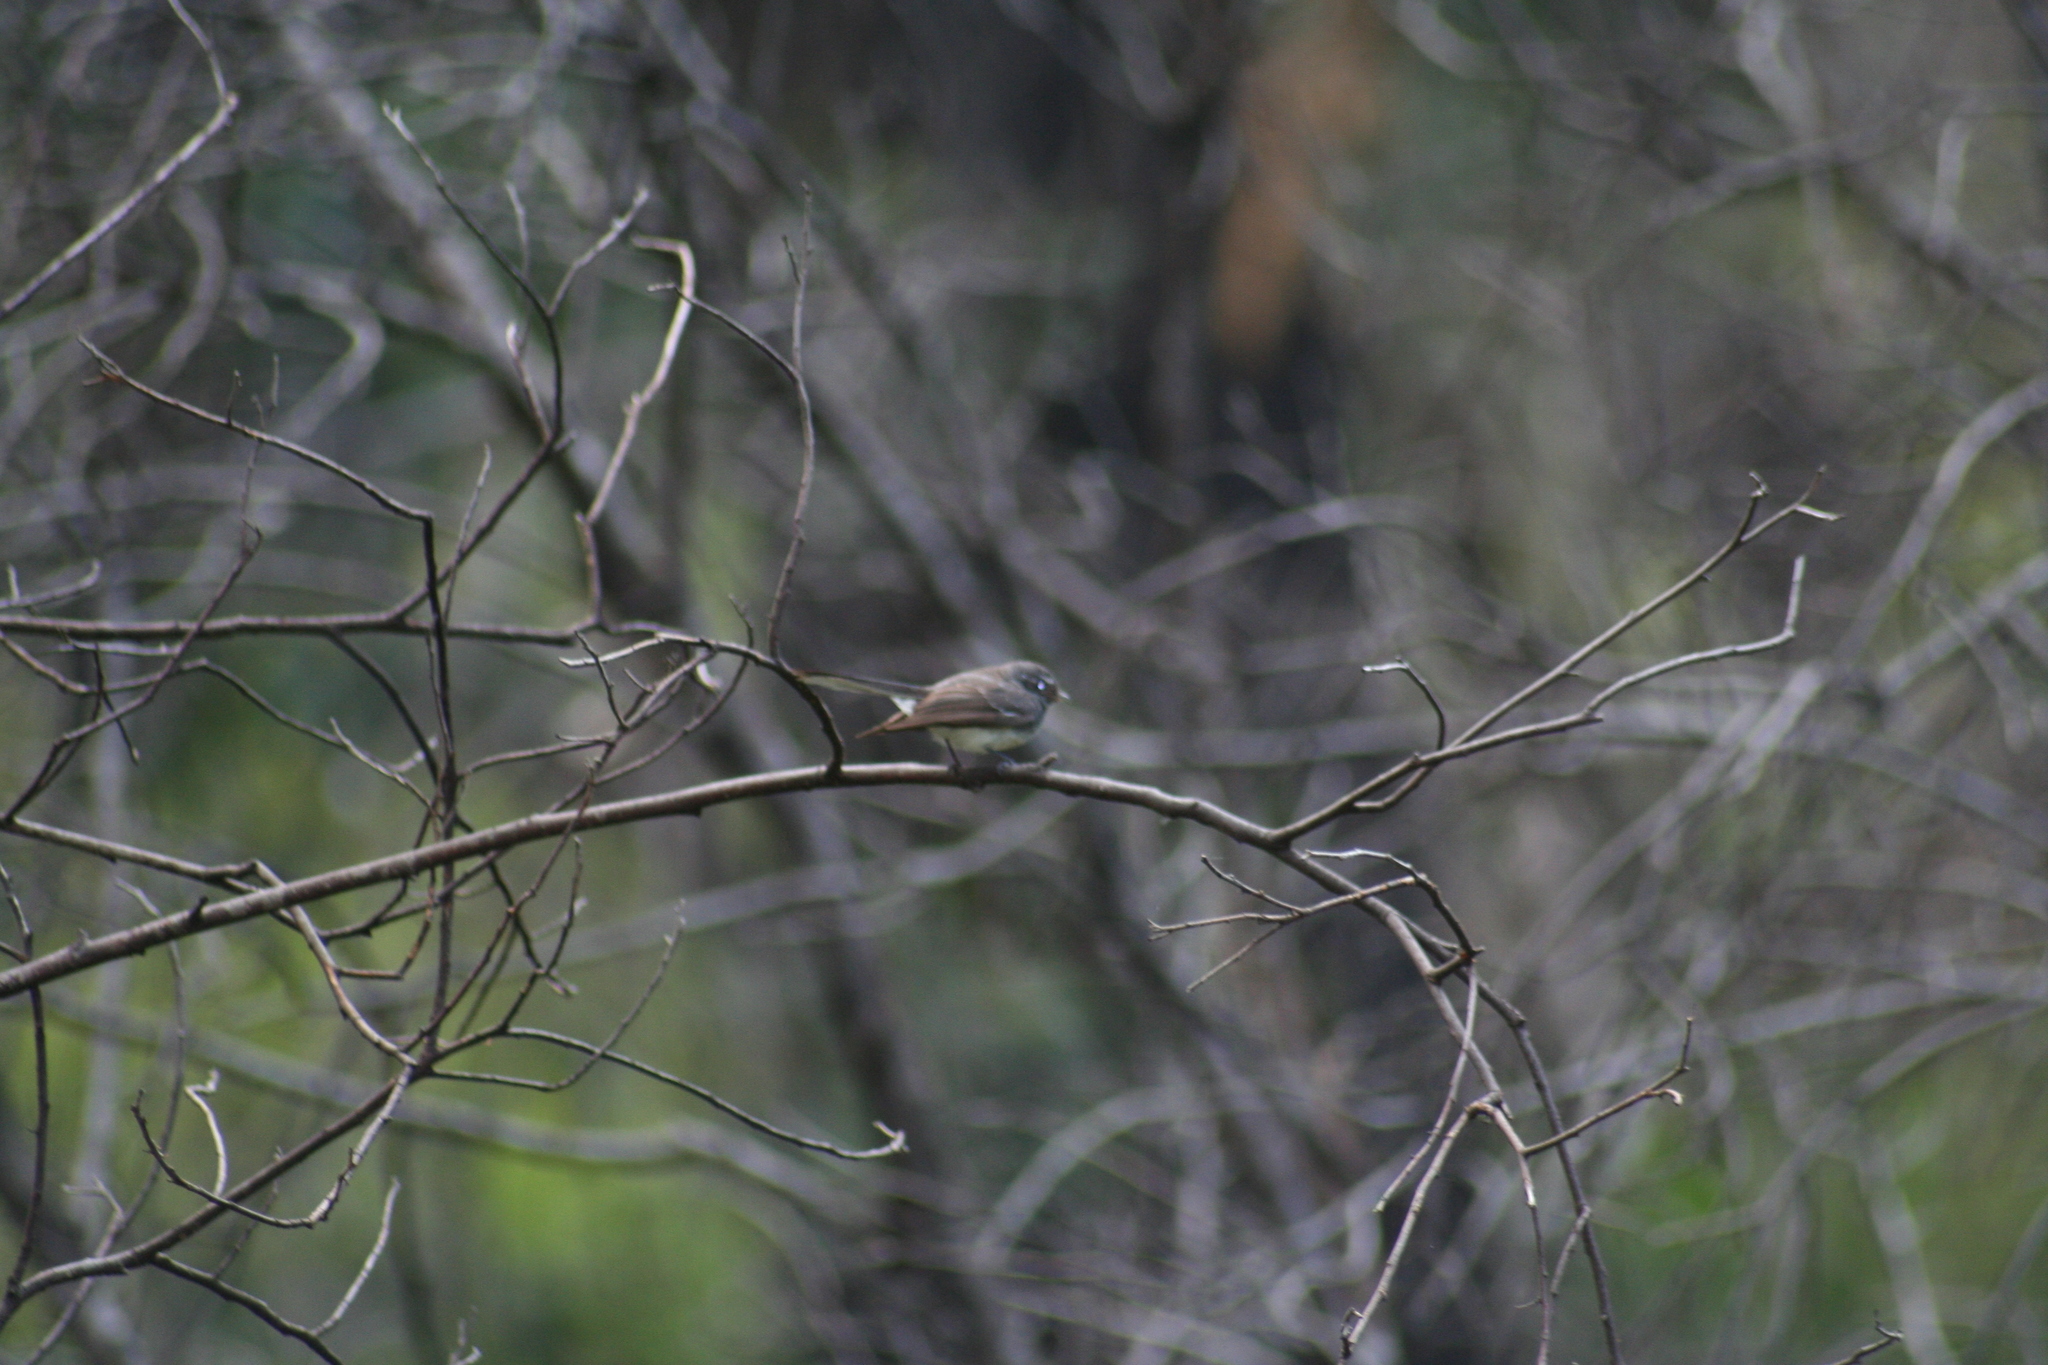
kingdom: Animalia
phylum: Chordata
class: Aves
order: Passeriformes
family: Rhipiduridae
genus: Rhipidura
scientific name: Rhipidura albiscapa
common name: Grey fantail
